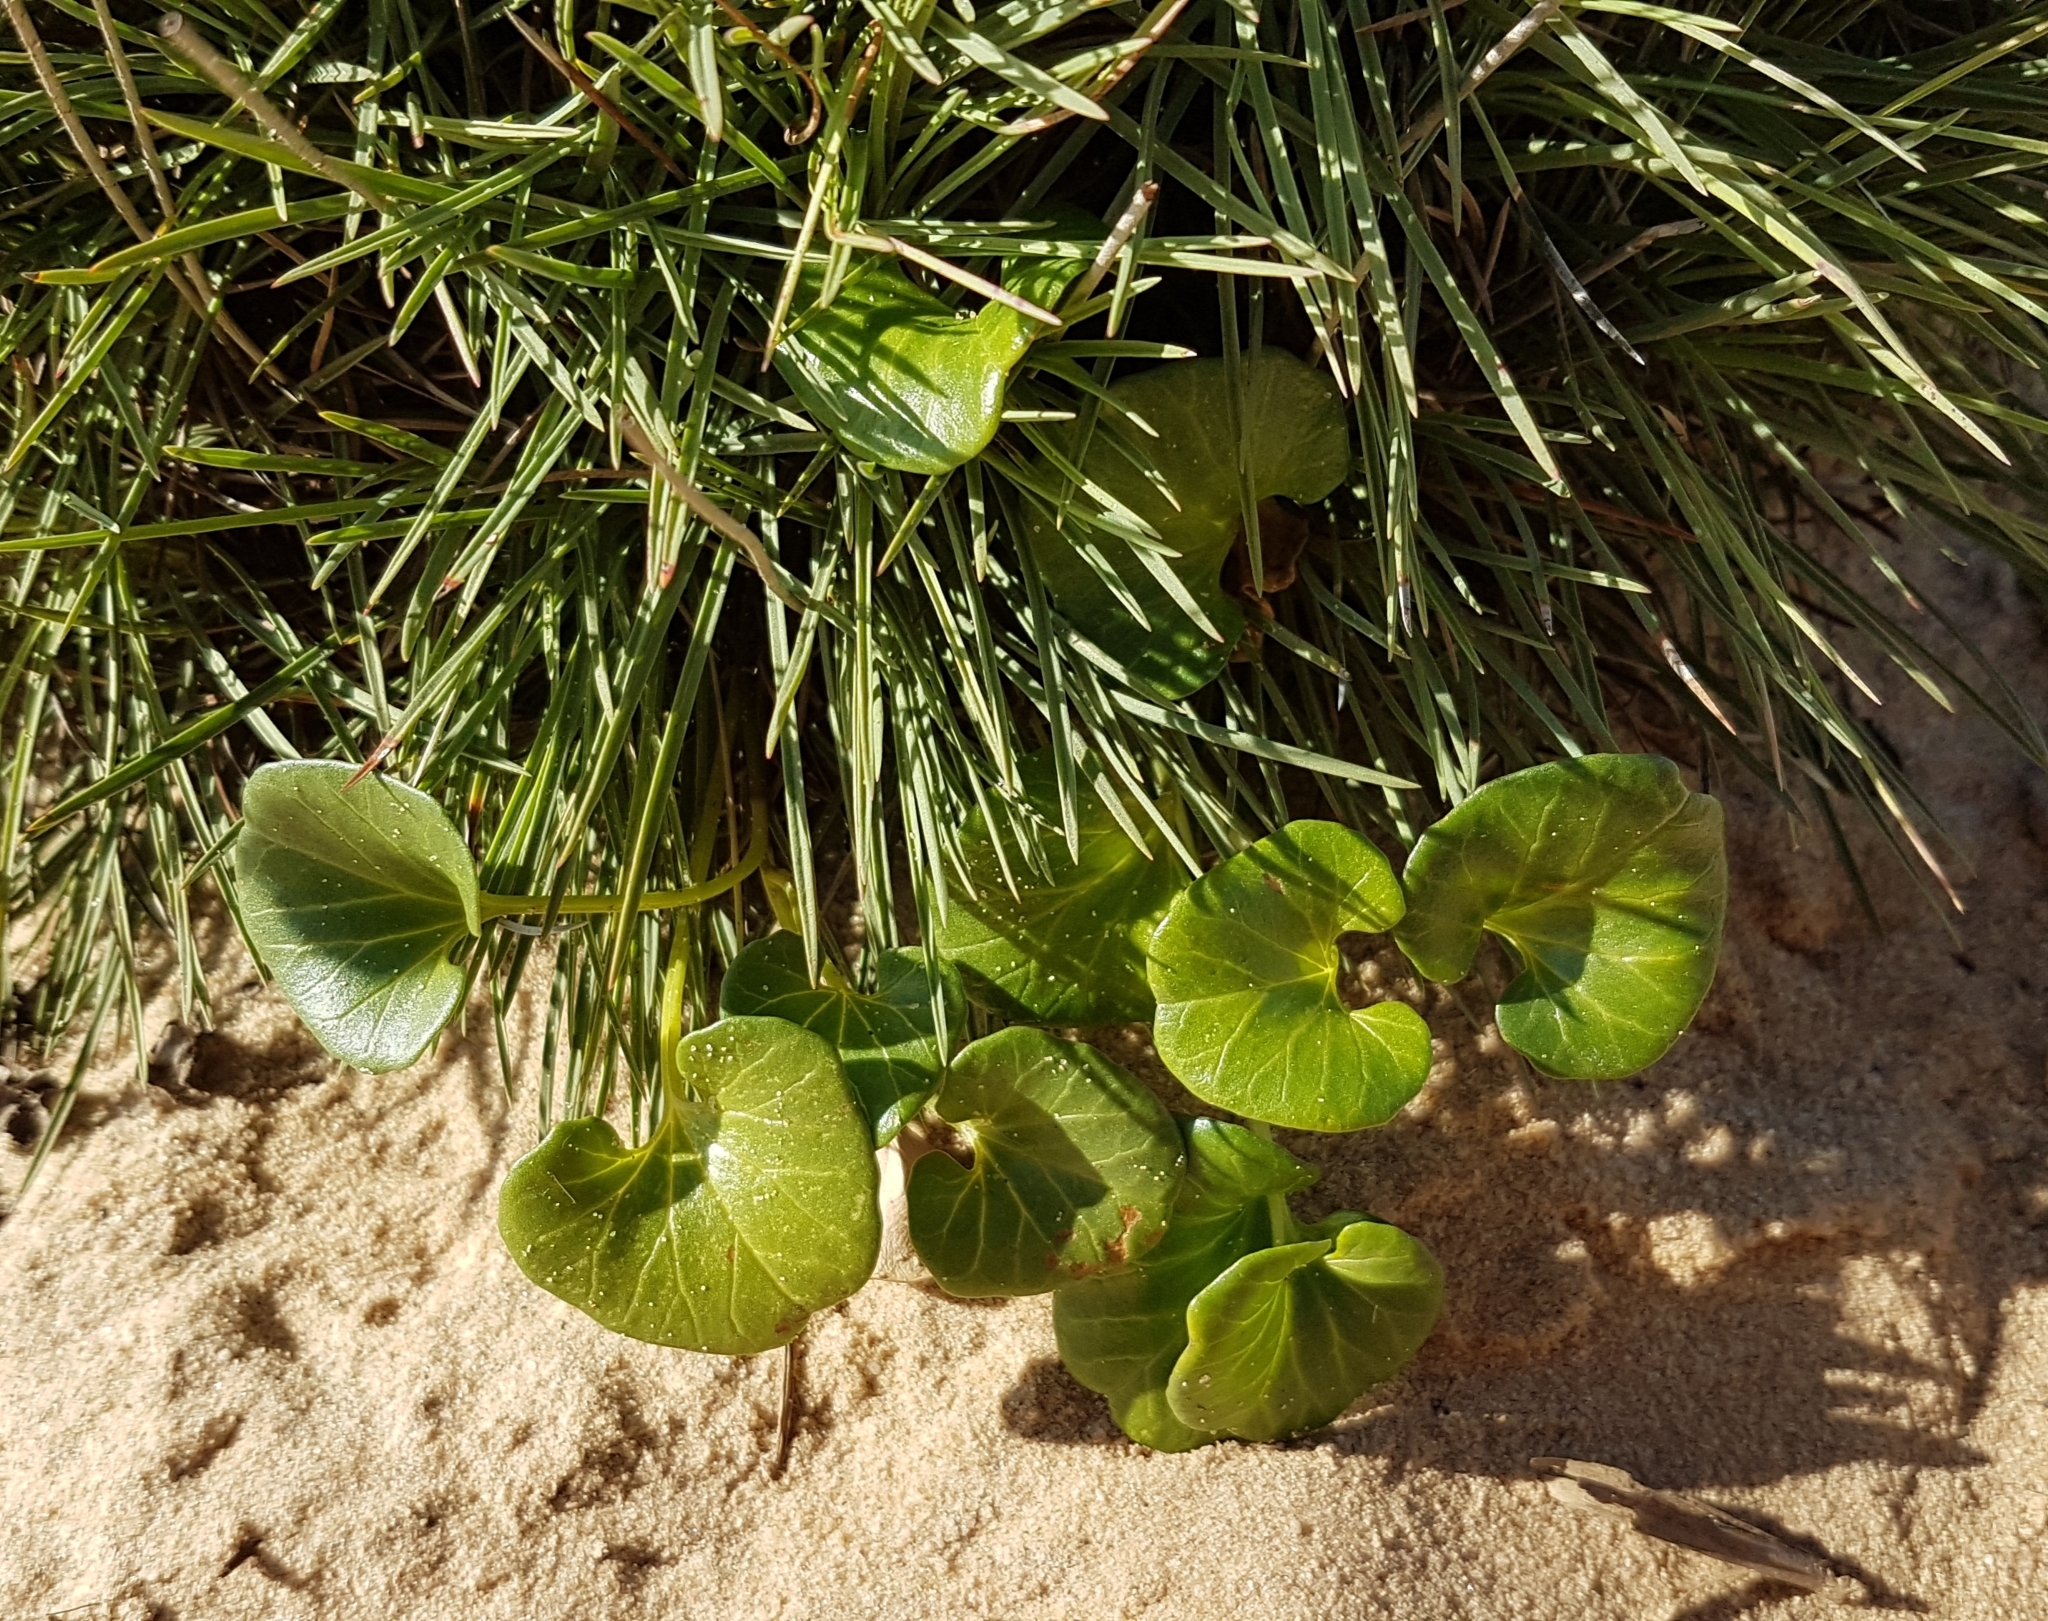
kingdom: Plantae
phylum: Tracheophyta
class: Magnoliopsida
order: Solanales
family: Convolvulaceae
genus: Calystegia
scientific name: Calystegia soldanella
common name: Sea bindweed
